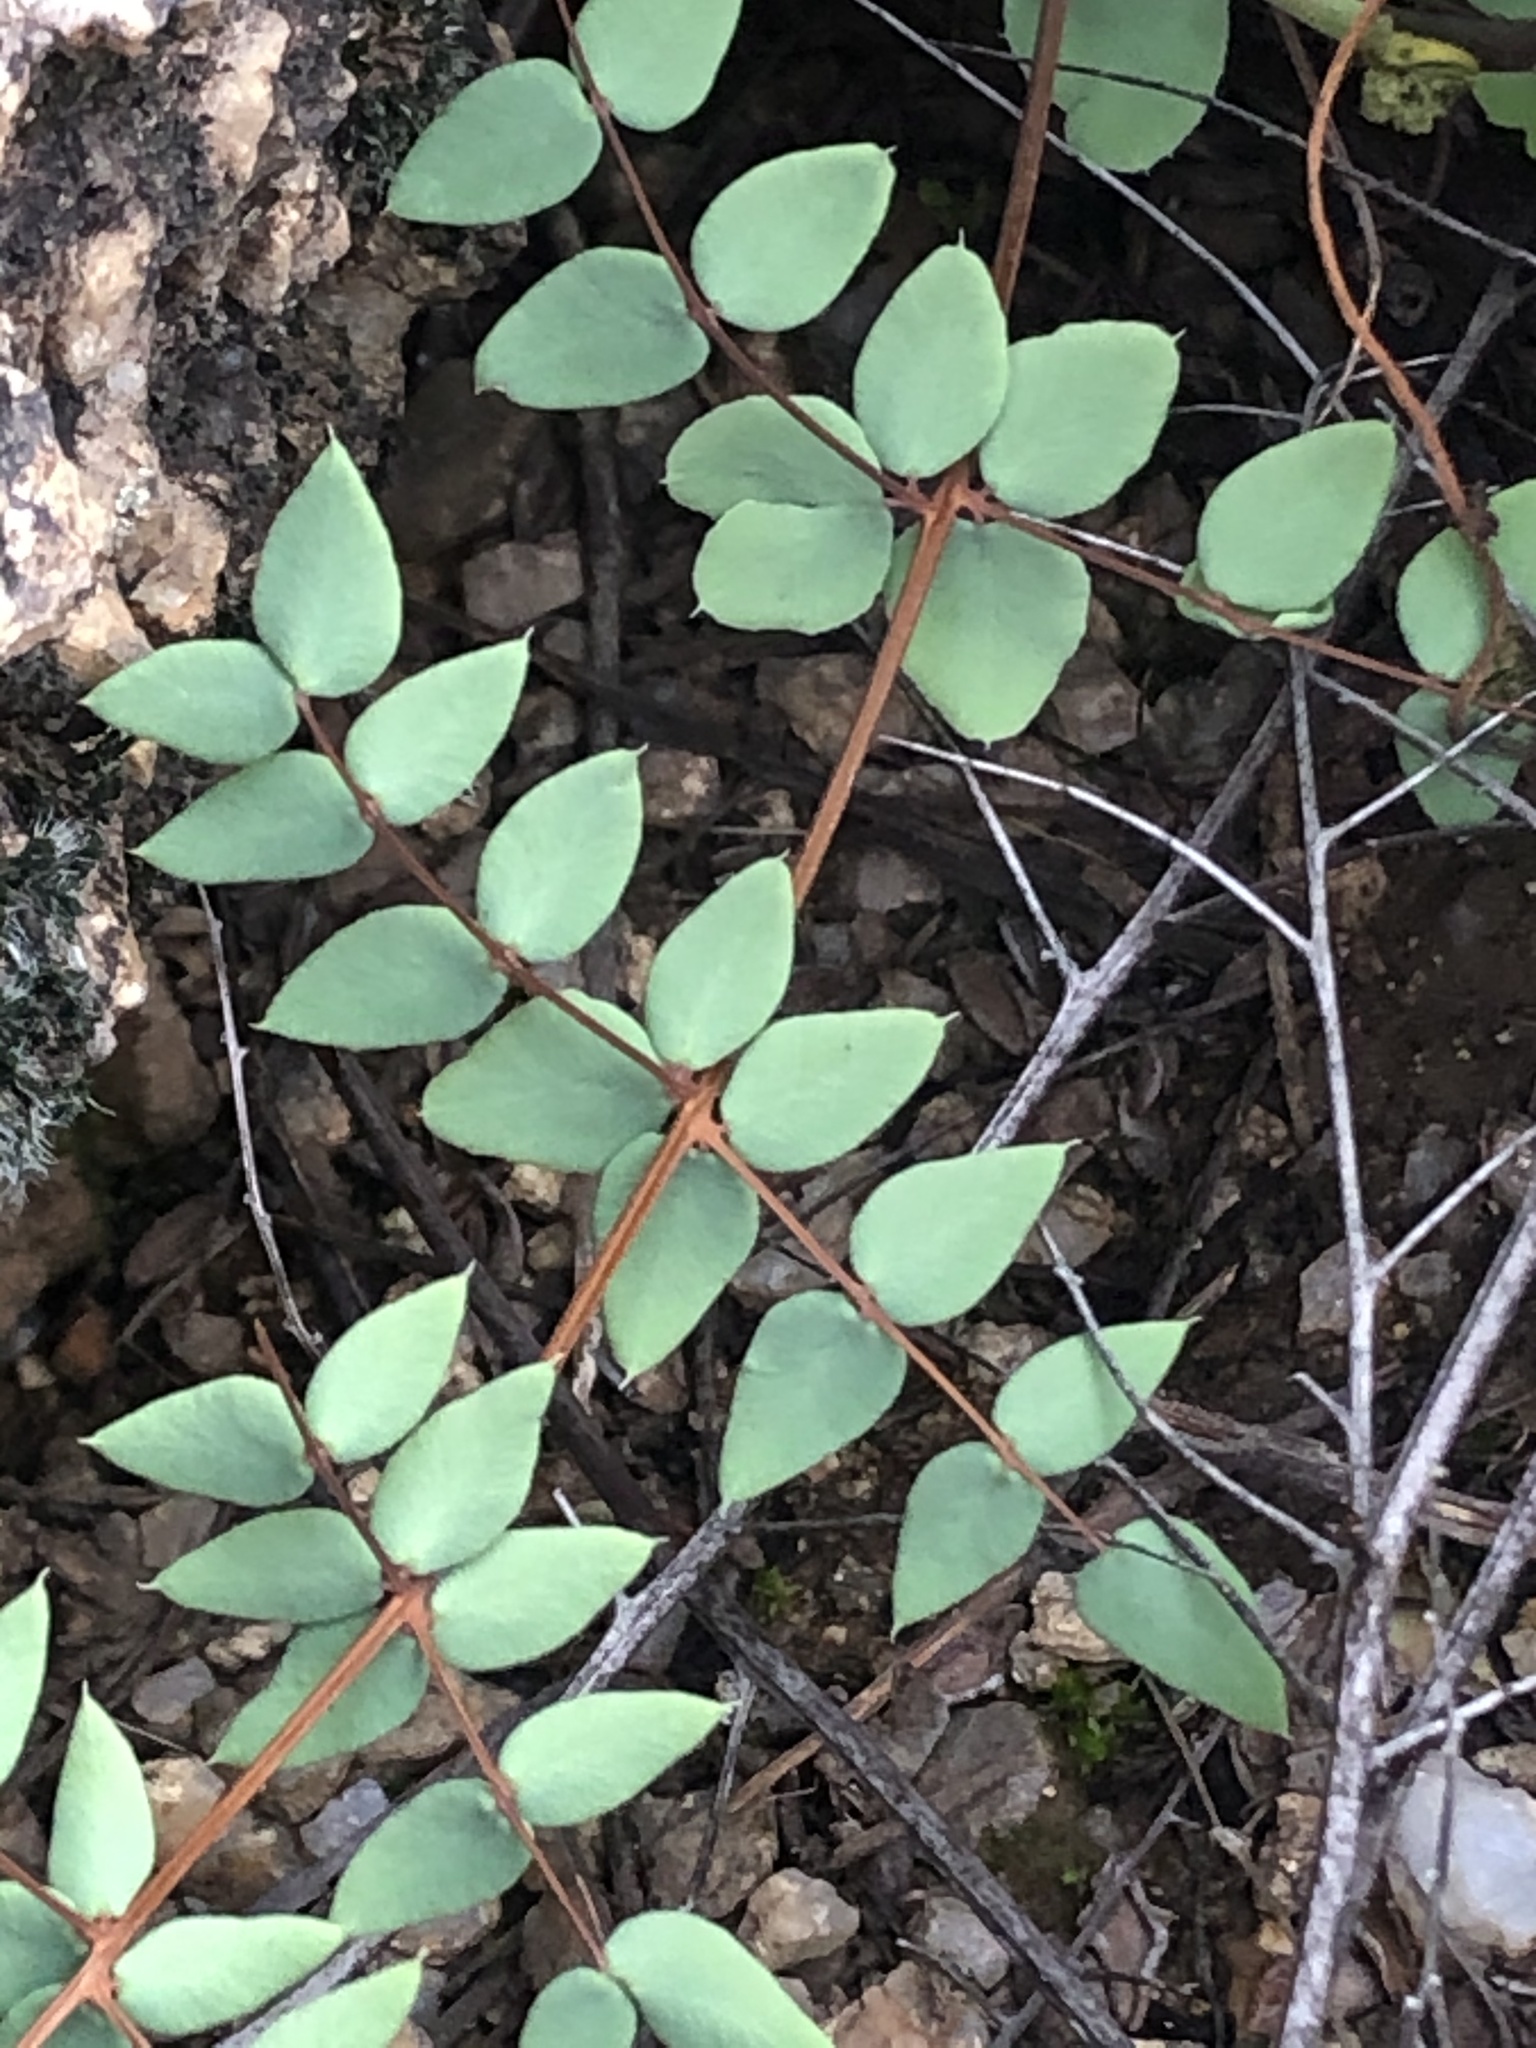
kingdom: Plantae
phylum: Tracheophyta
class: Polypodiopsida
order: Polypodiales
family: Pteridaceae
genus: Pellaea
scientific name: Pellaea truncata
